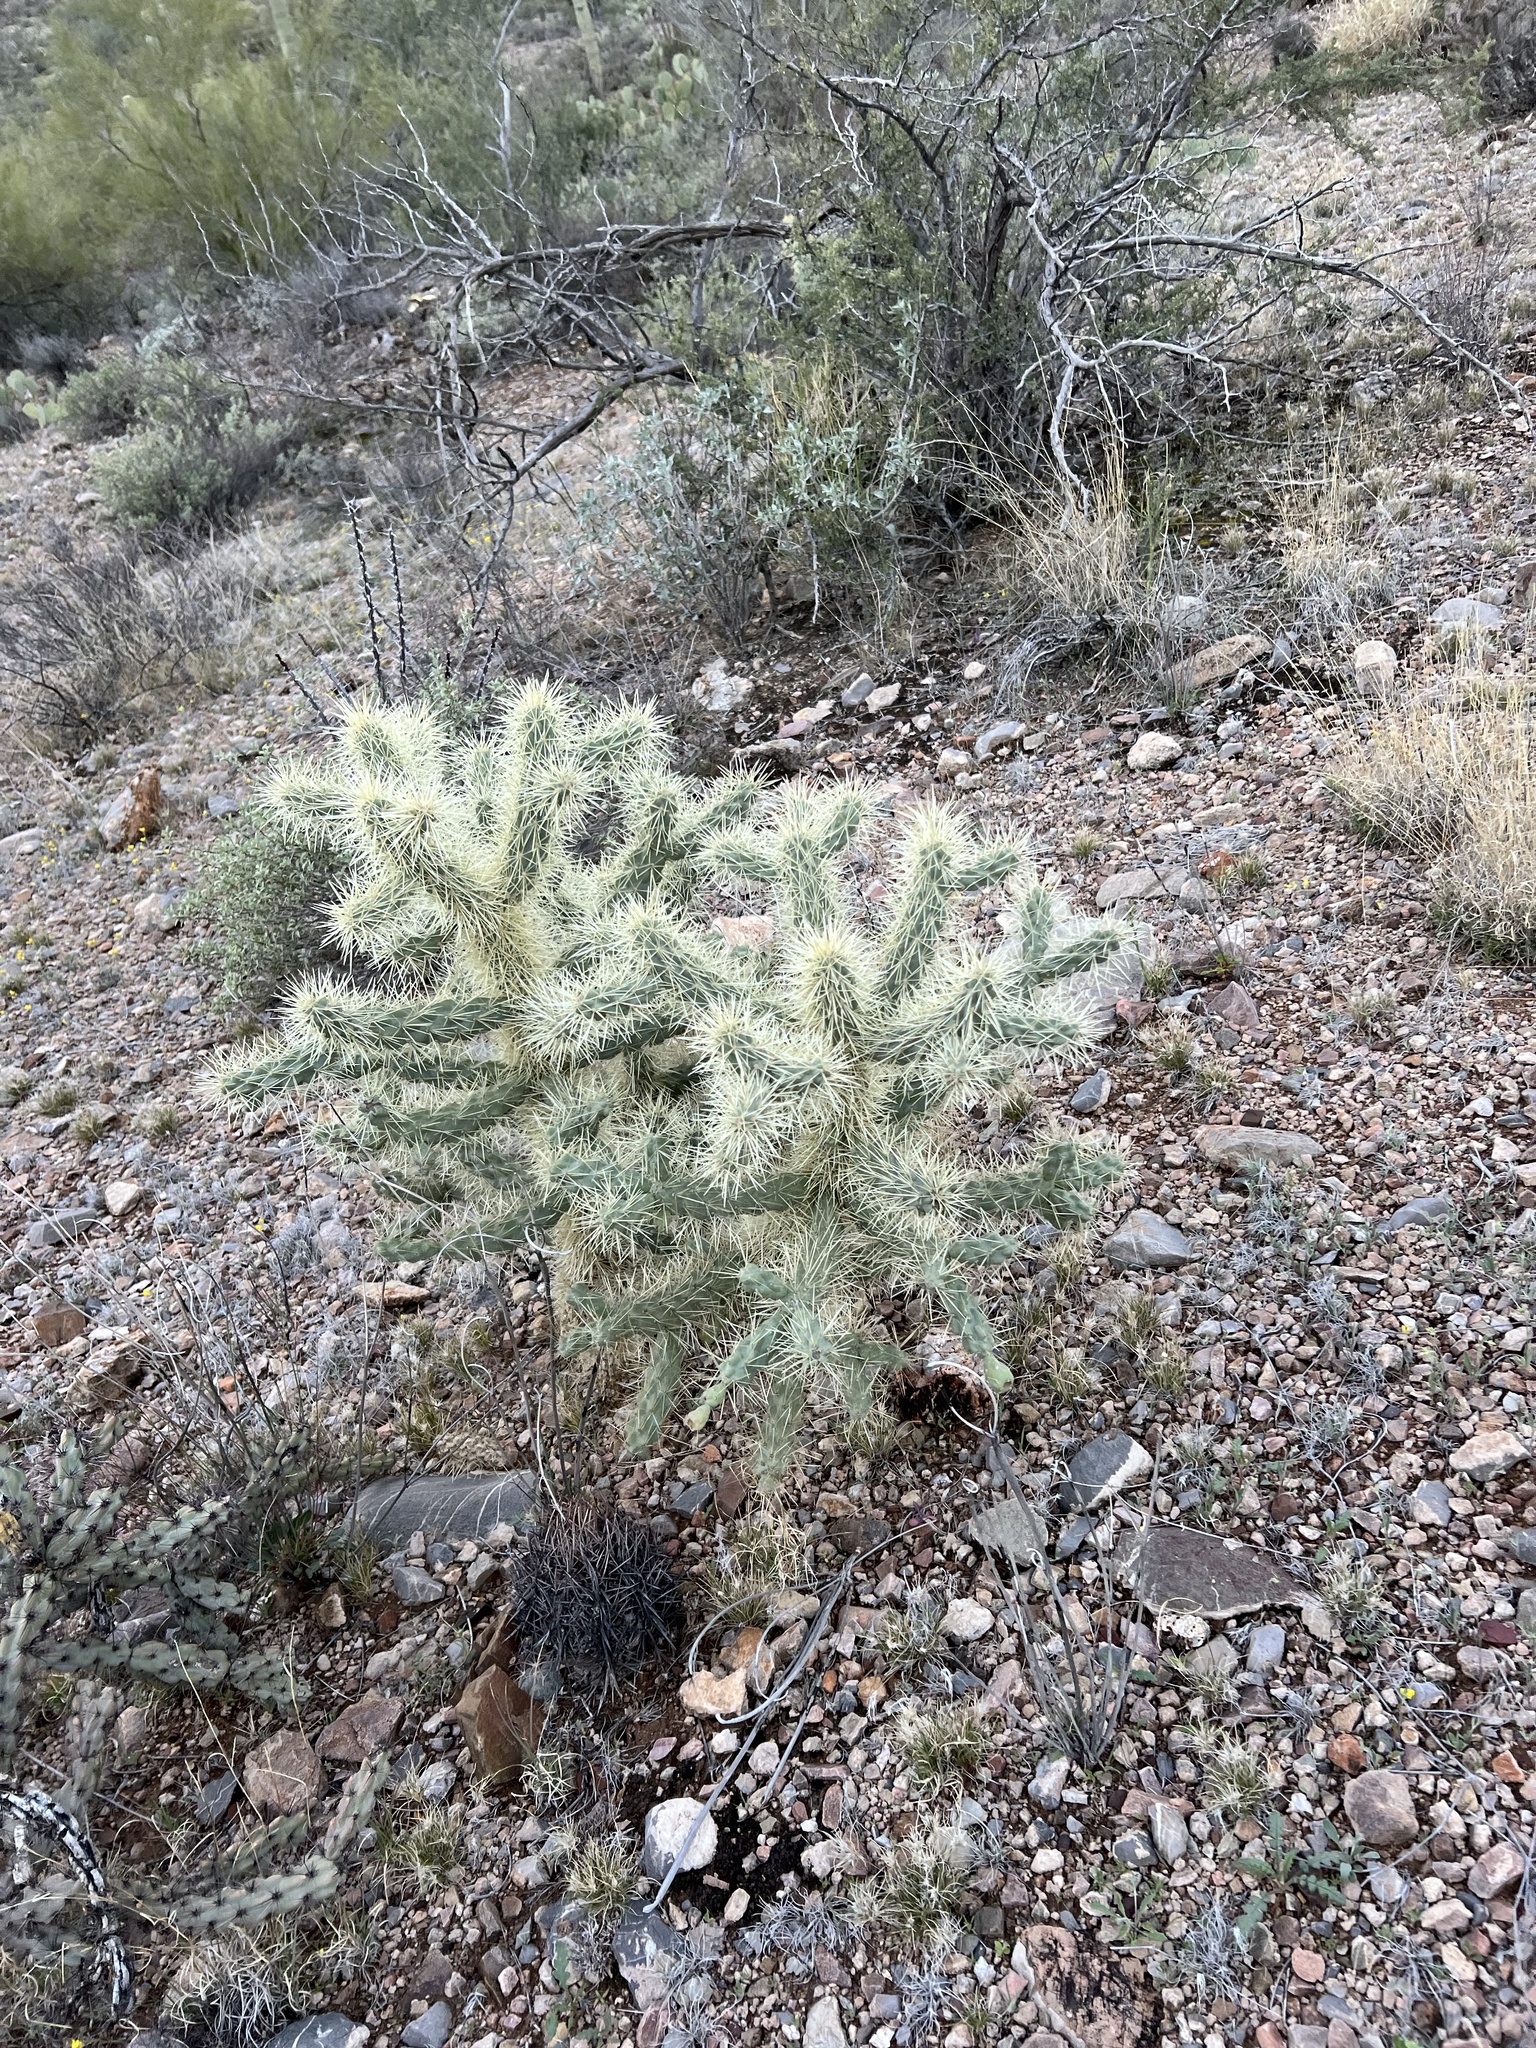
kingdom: Plantae
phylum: Tracheophyta
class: Magnoliopsida
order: Caryophyllales
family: Cactaceae
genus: Cylindropuntia
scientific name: Cylindropuntia fulgida
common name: Jumping cholla
